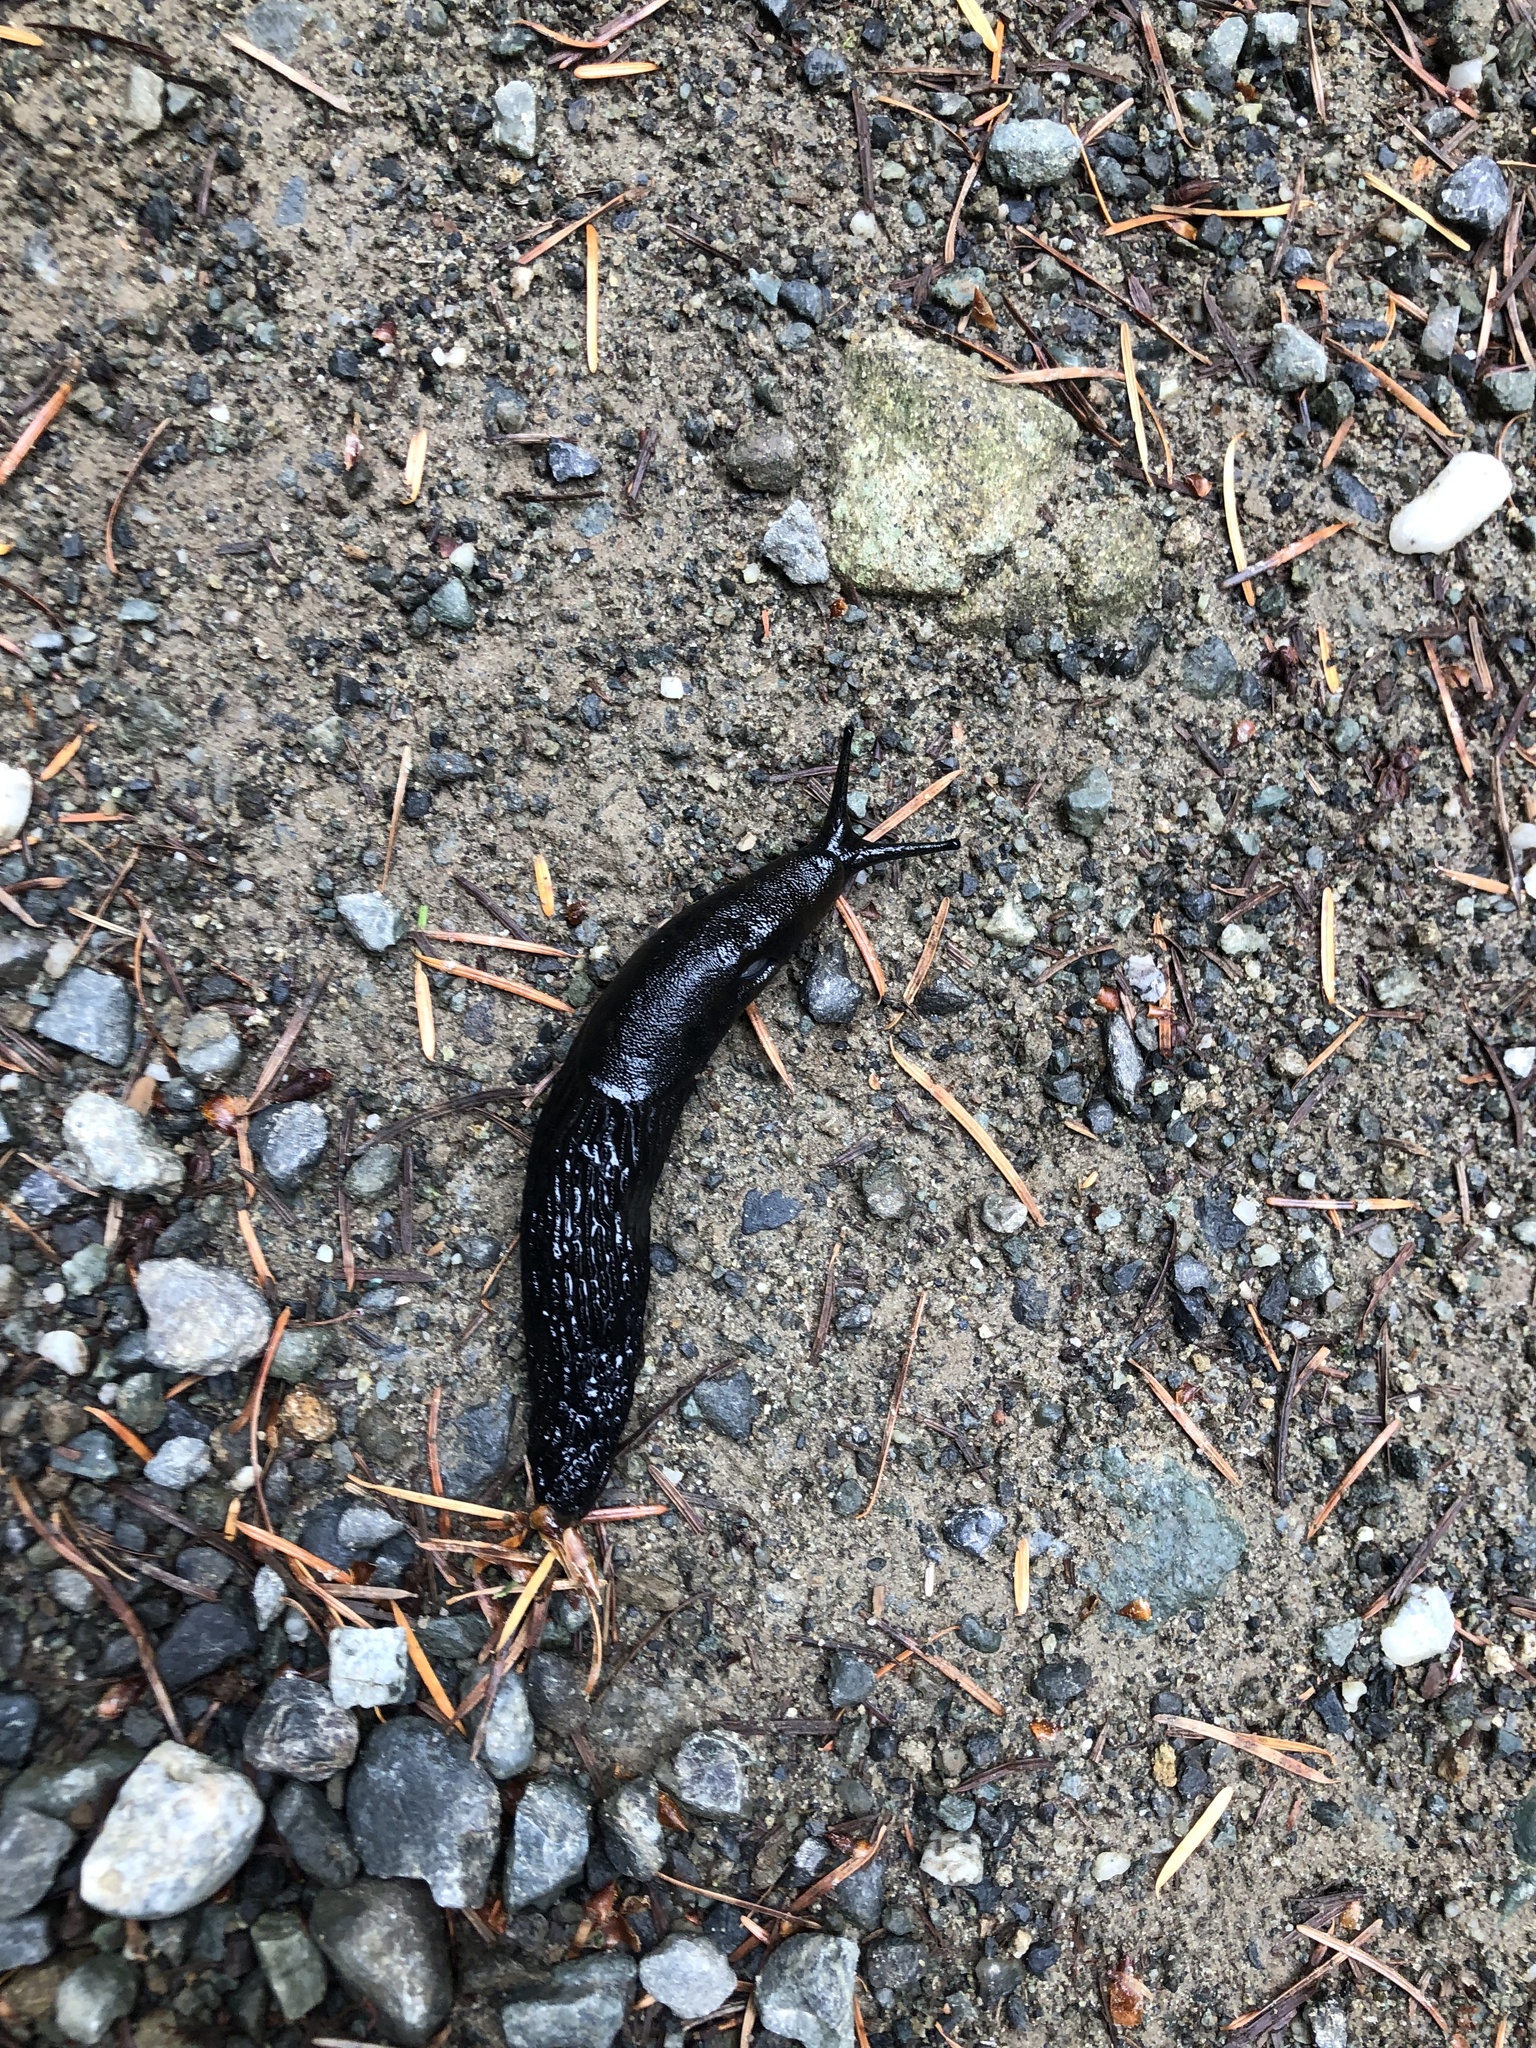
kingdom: Animalia
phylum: Mollusca
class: Gastropoda
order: Stylommatophora
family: Arionidae
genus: Arion
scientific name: Arion
